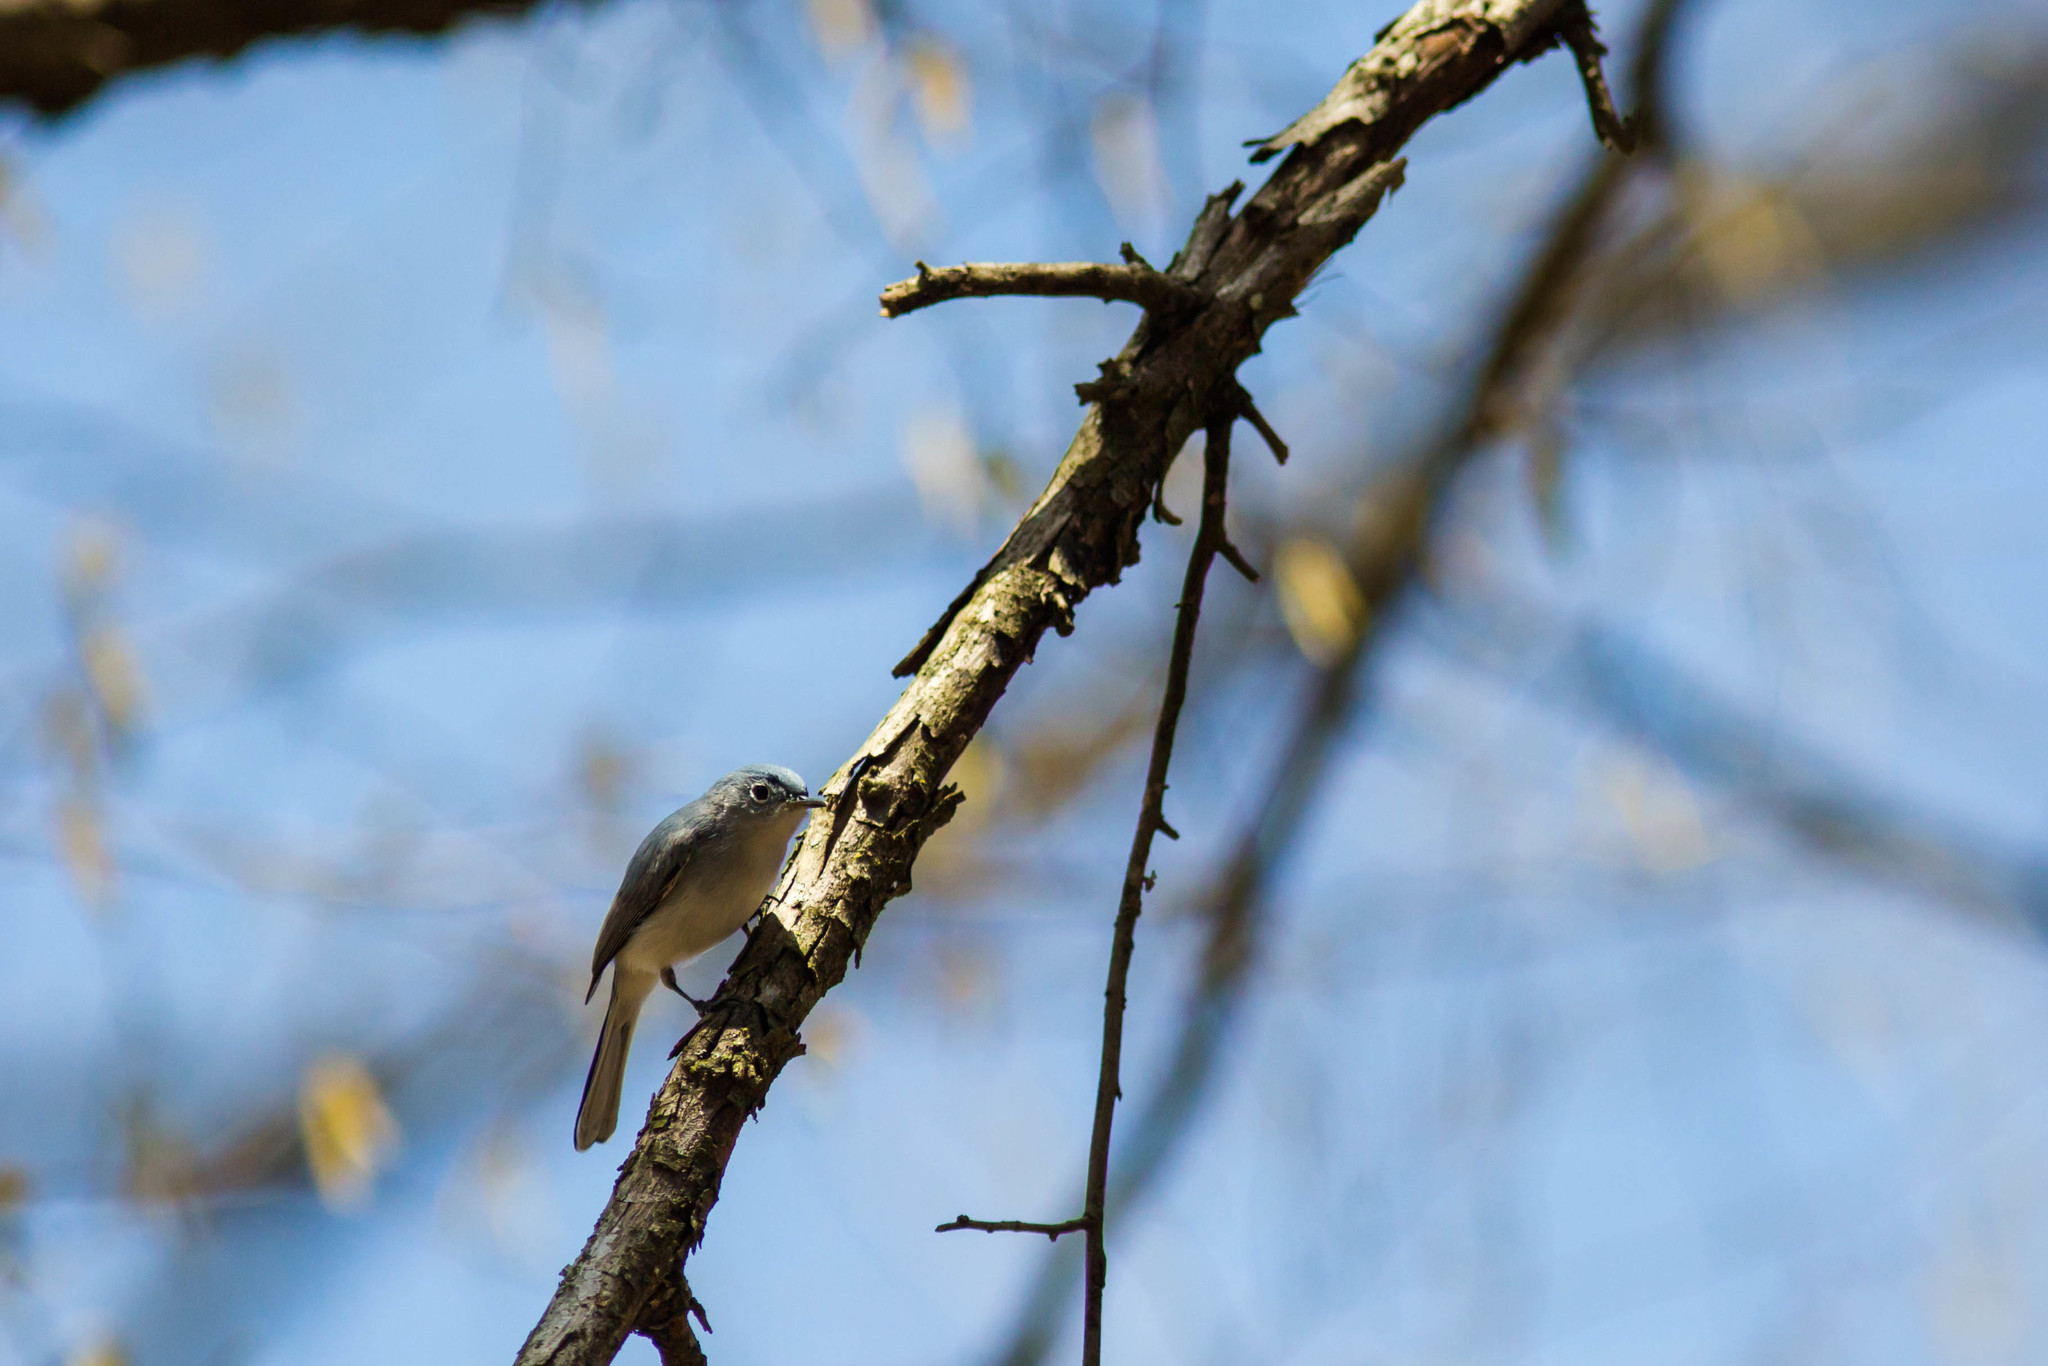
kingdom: Animalia
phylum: Chordata
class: Aves
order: Passeriformes
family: Polioptilidae
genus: Polioptila
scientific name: Polioptila caerulea
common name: Blue-gray gnatcatcher
